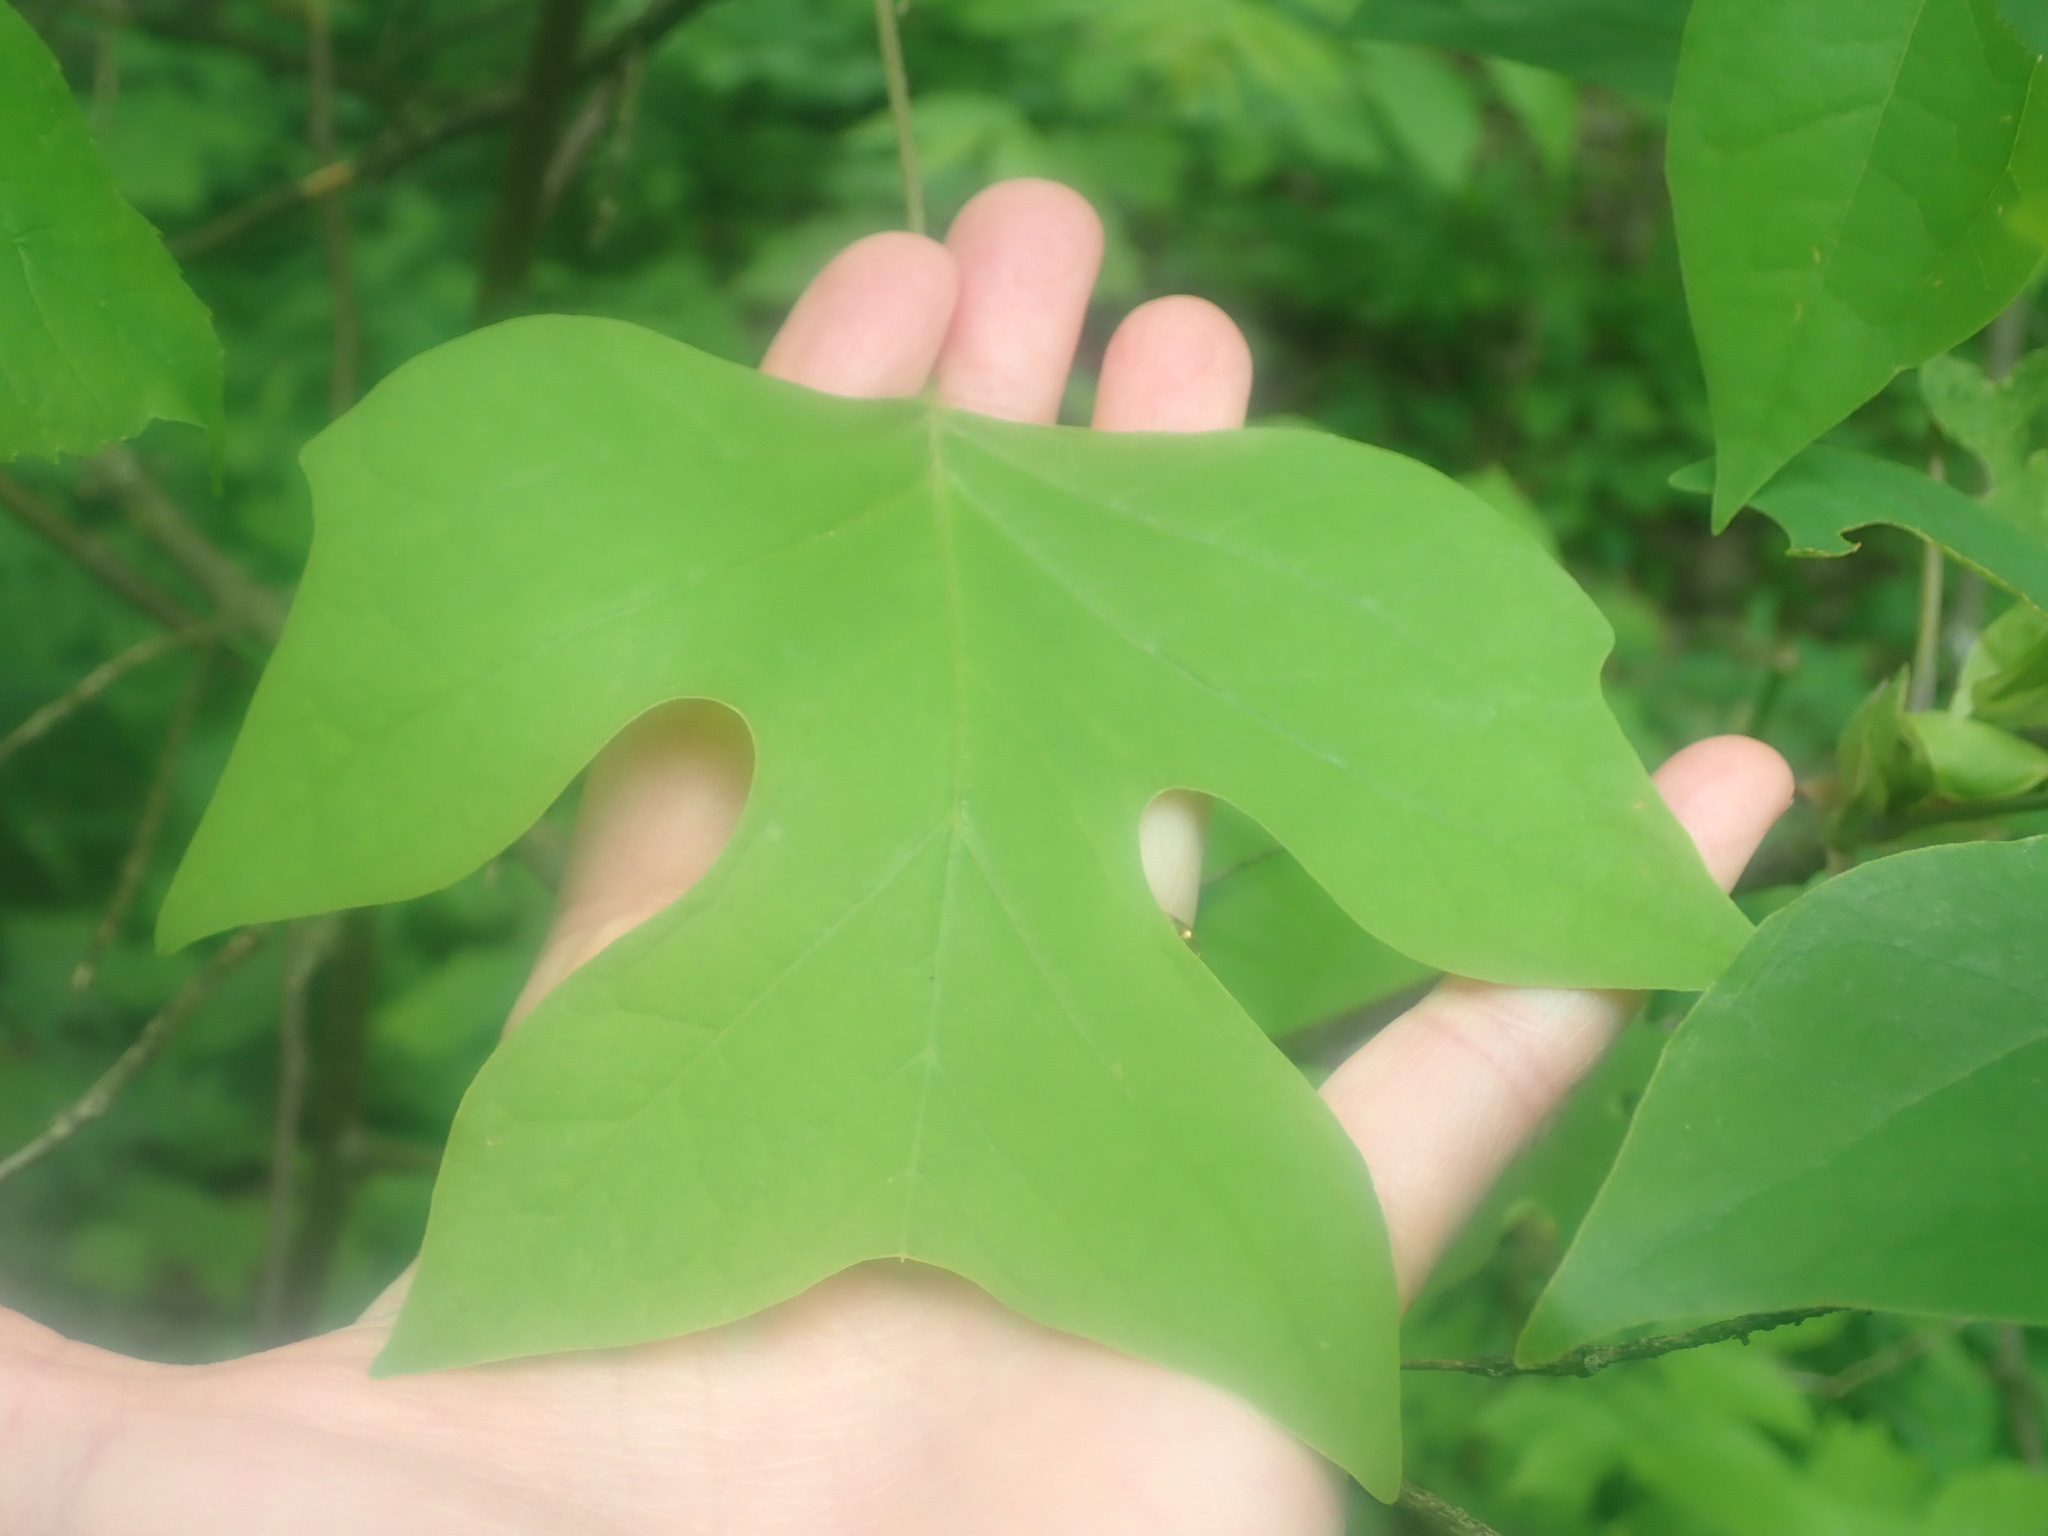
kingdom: Plantae
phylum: Tracheophyta
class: Magnoliopsida
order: Magnoliales
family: Magnoliaceae
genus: Liriodendron
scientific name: Liriodendron tulipifera
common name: Tulip tree
